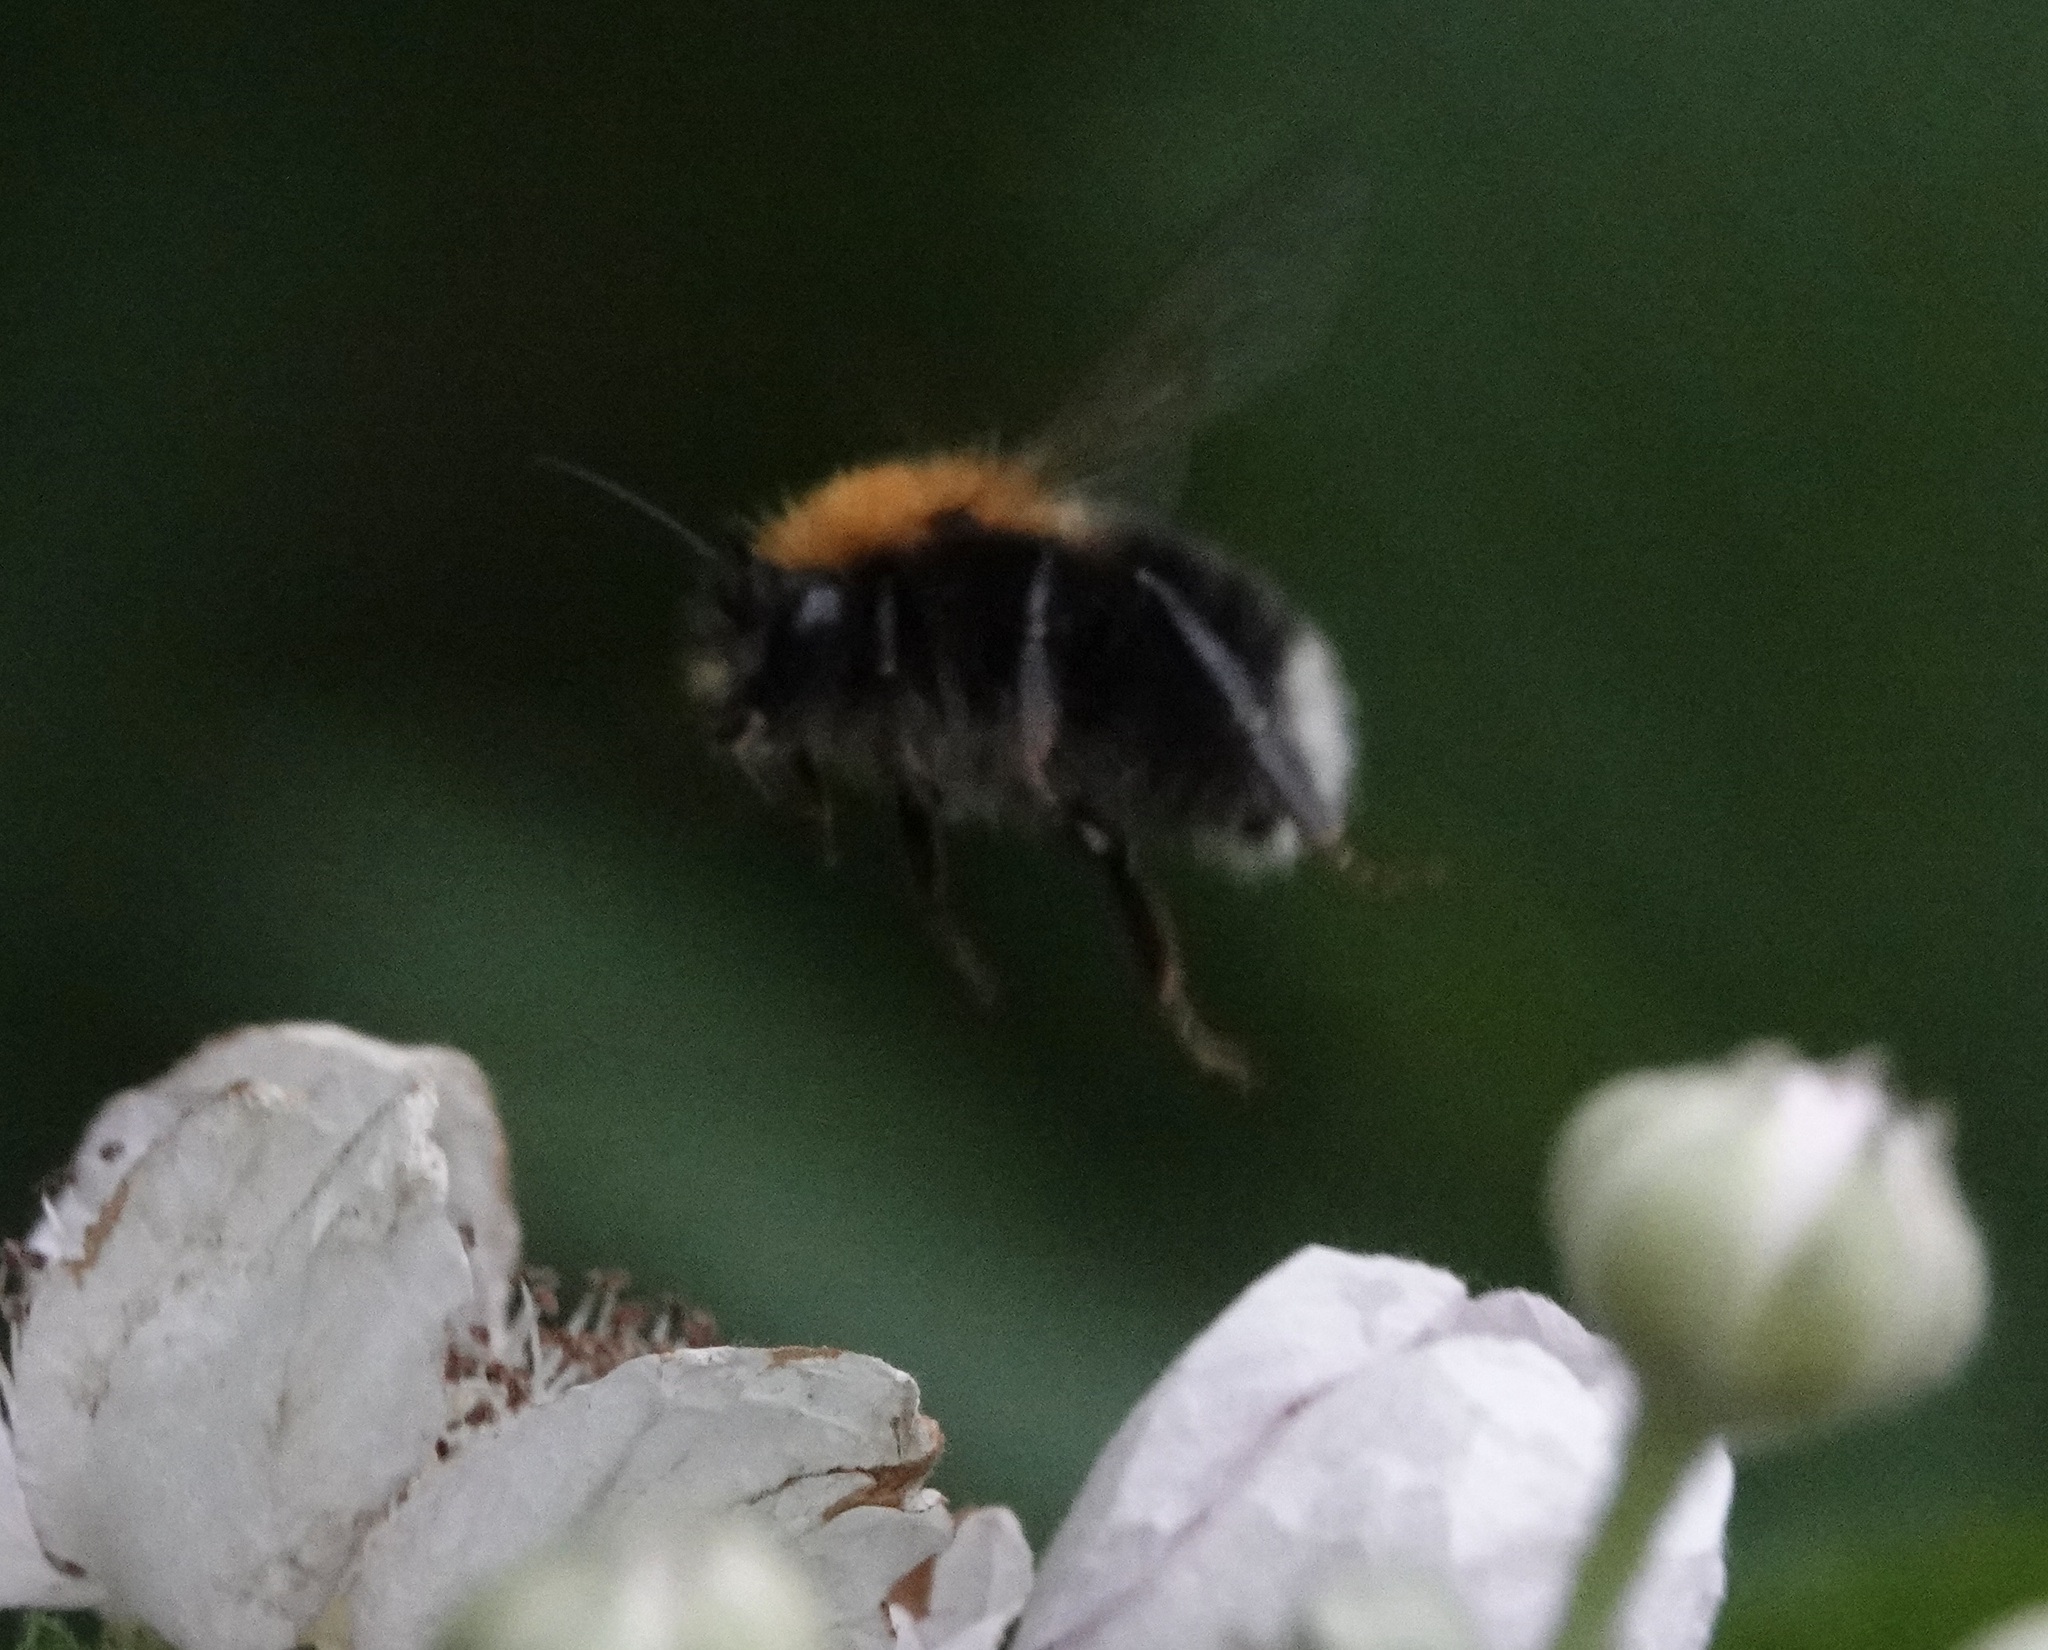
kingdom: Animalia
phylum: Arthropoda
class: Insecta
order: Hymenoptera
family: Apidae
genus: Bombus
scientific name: Bombus hypnorum
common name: New garden bumblebee
